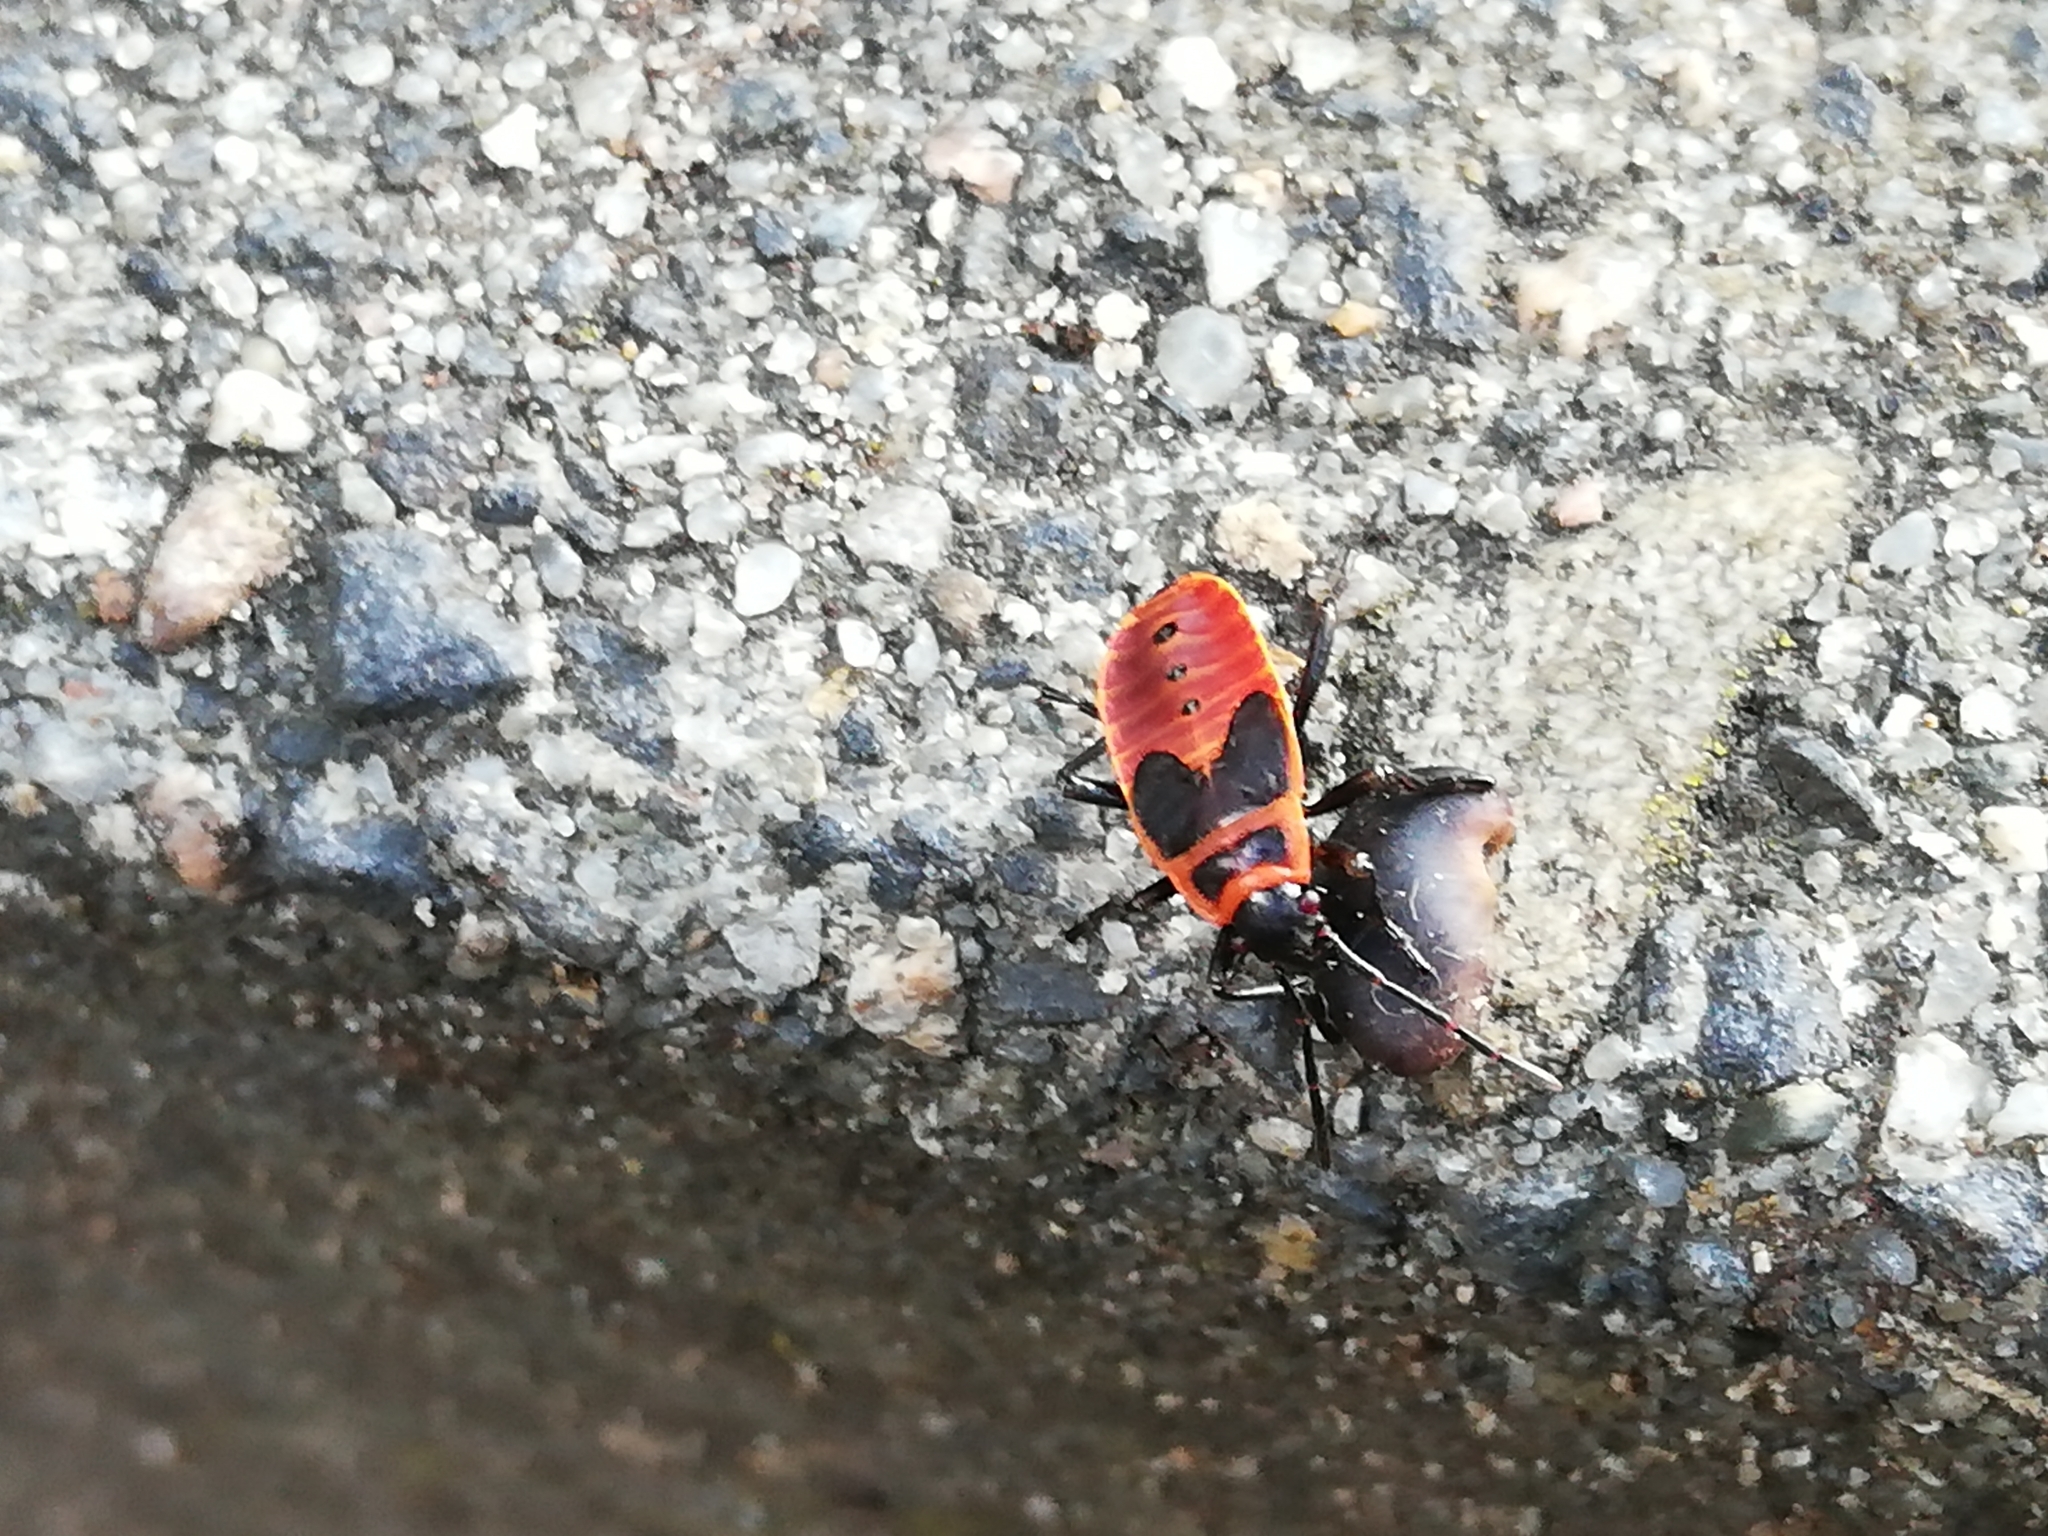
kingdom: Animalia
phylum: Arthropoda
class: Insecta
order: Hemiptera
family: Pyrrhocoridae
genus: Pyrrhocoris
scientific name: Pyrrhocoris apterus
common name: Firebug
